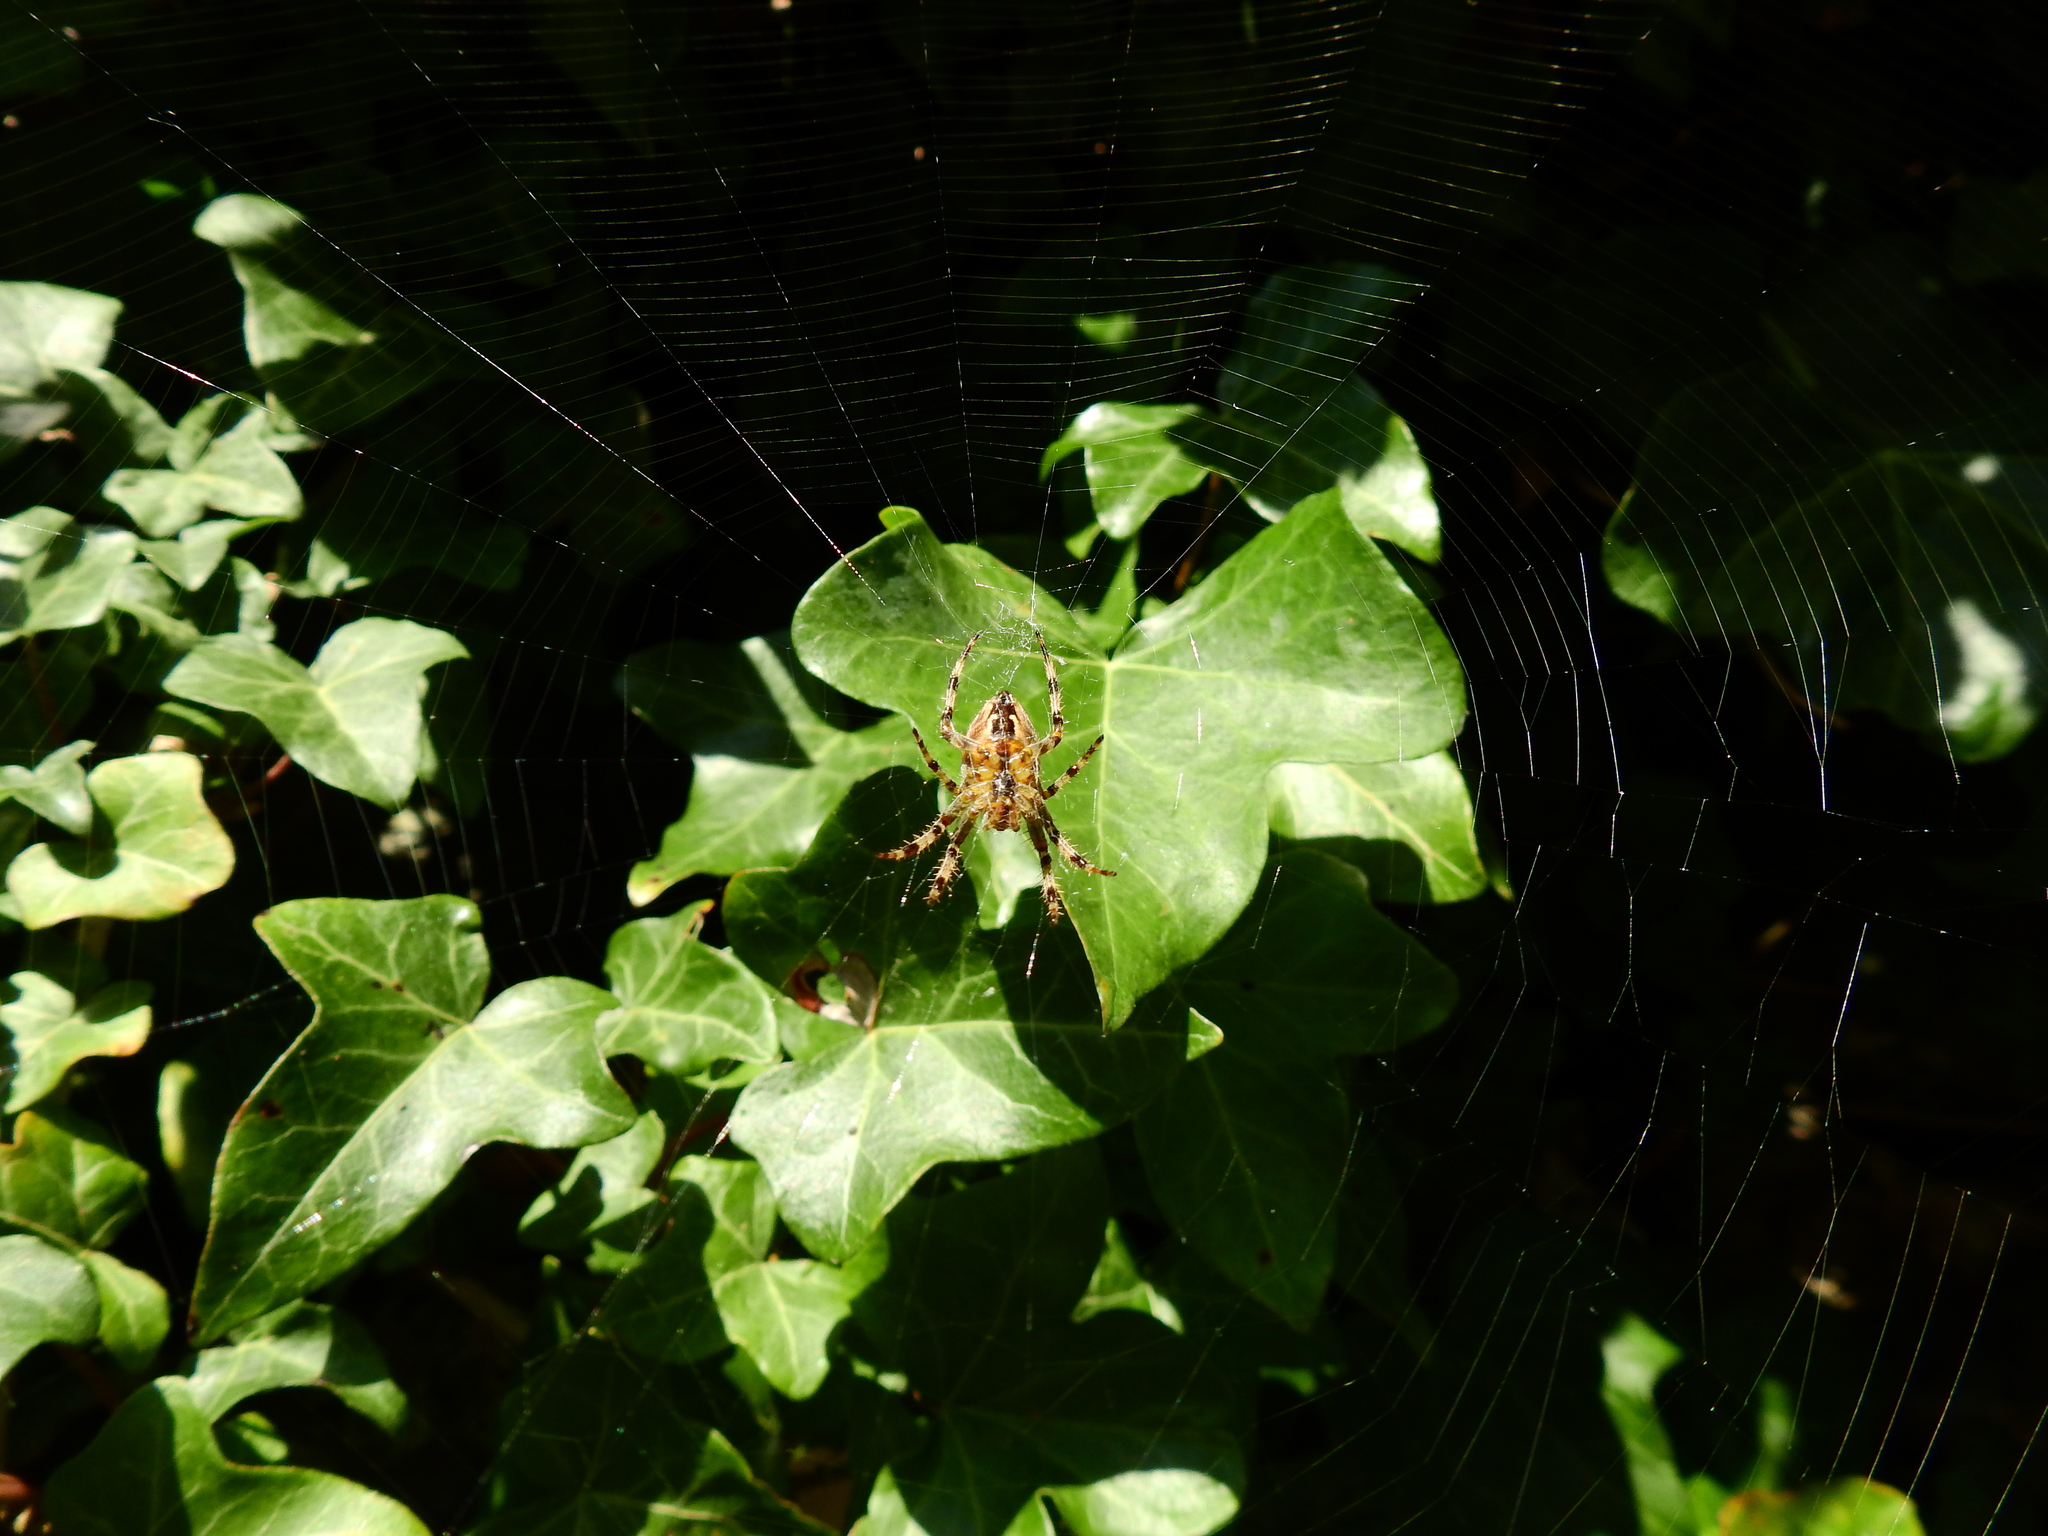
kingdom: Animalia
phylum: Arthropoda
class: Arachnida
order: Araneae
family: Araneidae
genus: Araneus
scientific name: Araneus diadematus
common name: Cross orbweaver
